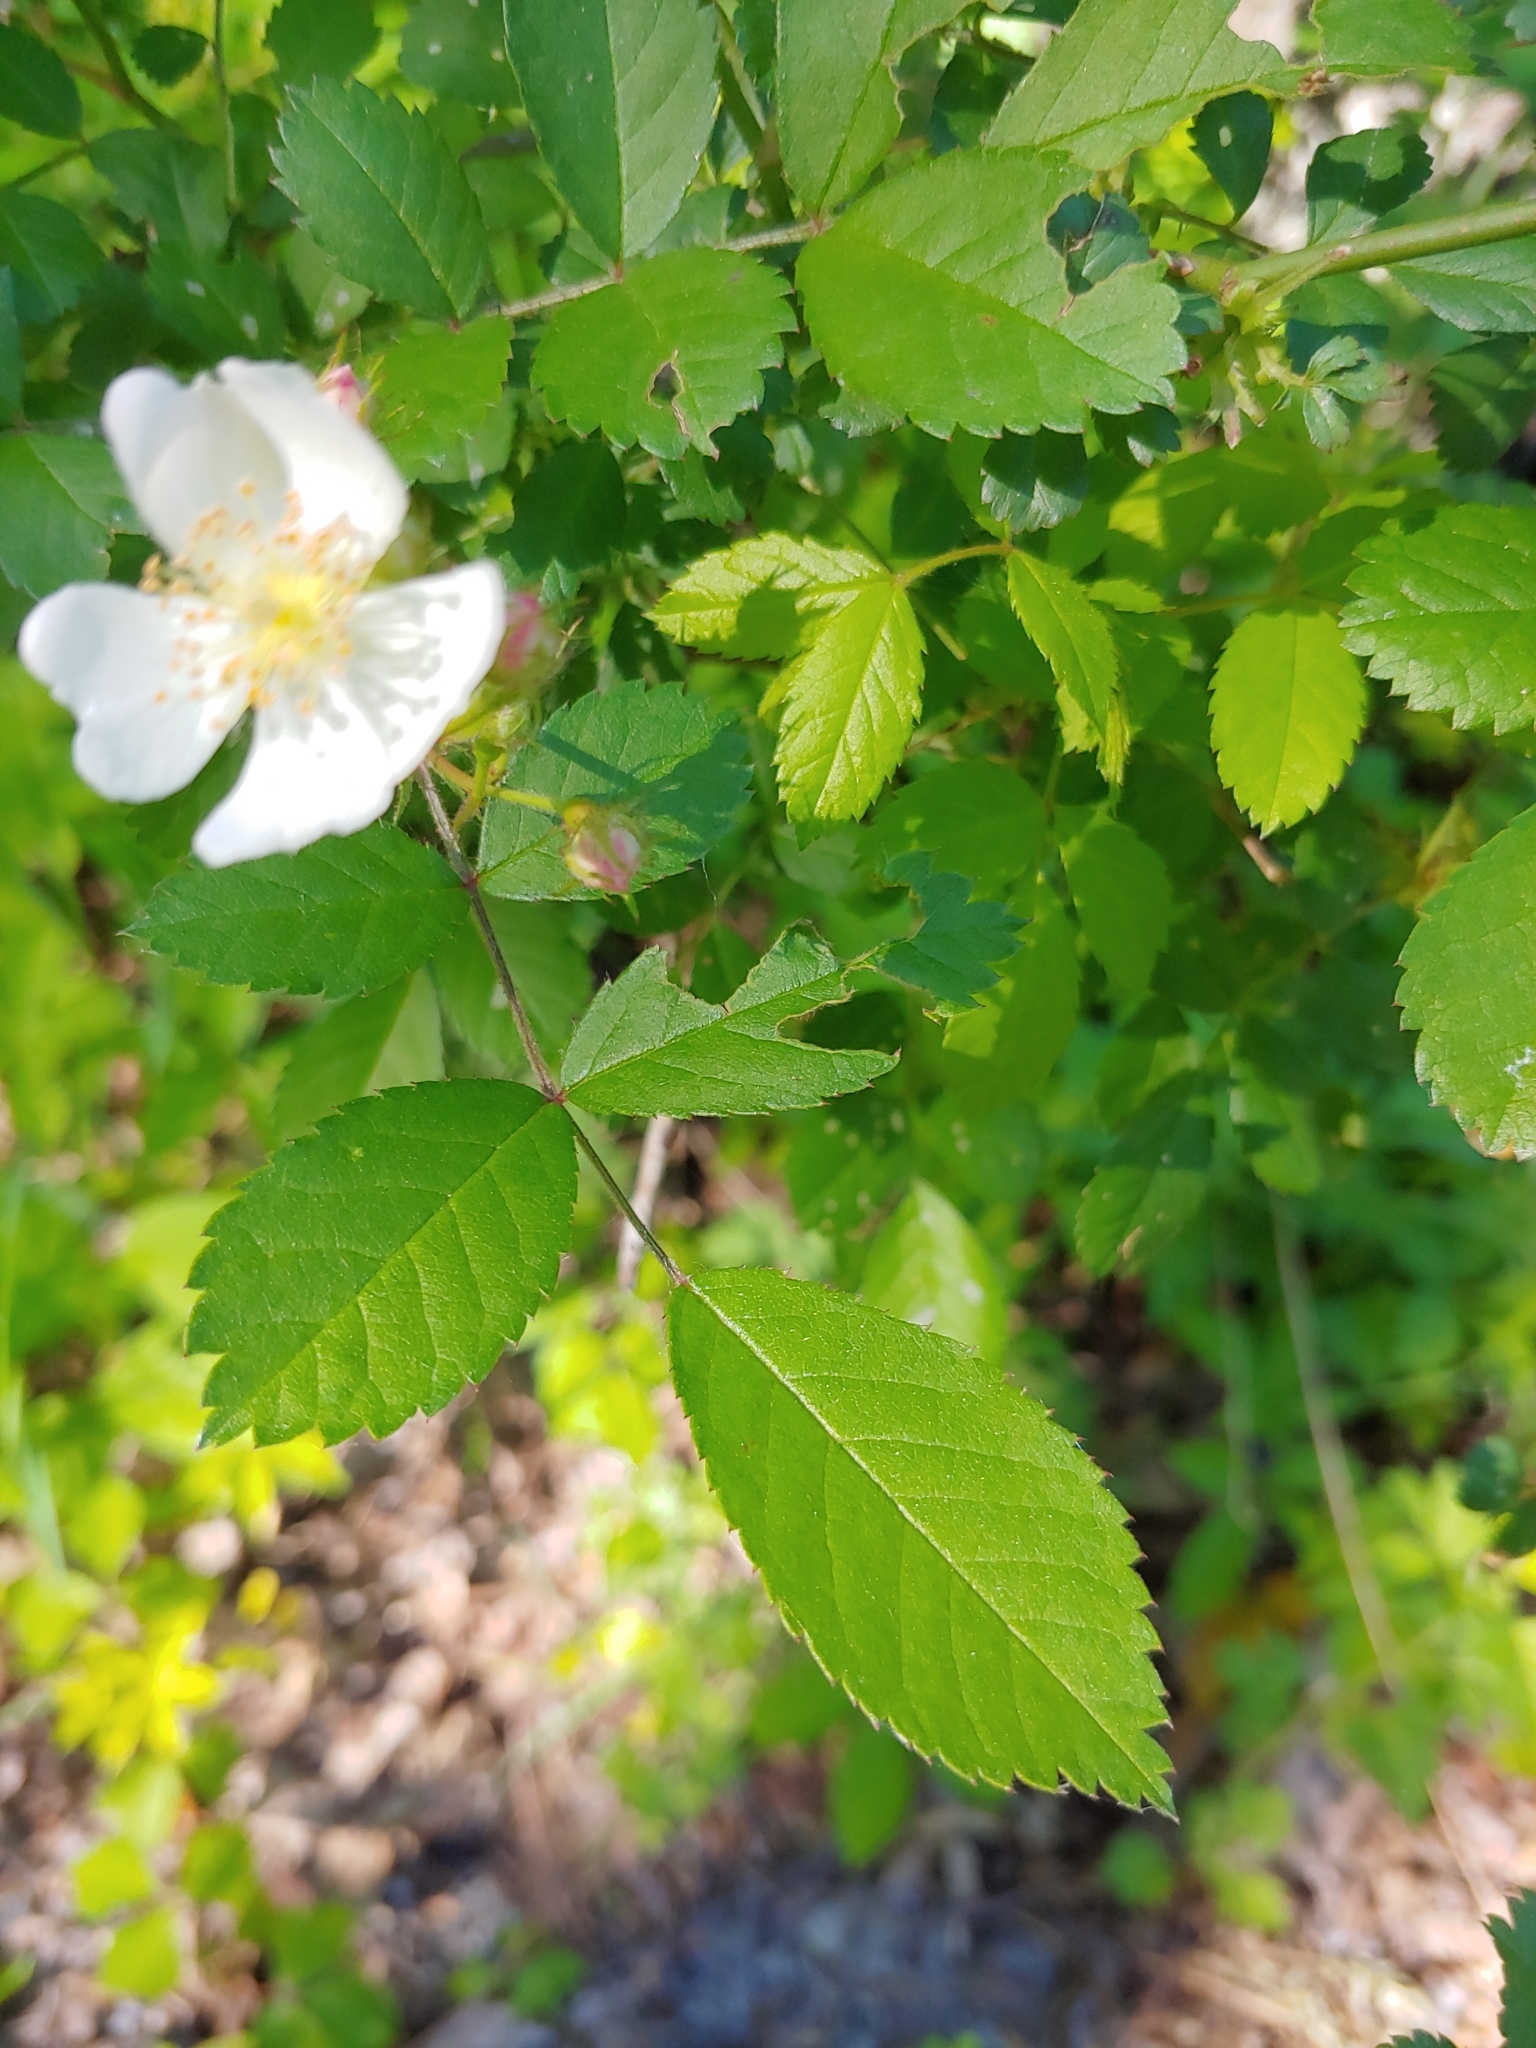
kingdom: Plantae
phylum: Tracheophyta
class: Magnoliopsida
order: Rosales
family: Rosaceae
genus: Rosa
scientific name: Rosa multiflora
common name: Multiflora rose
